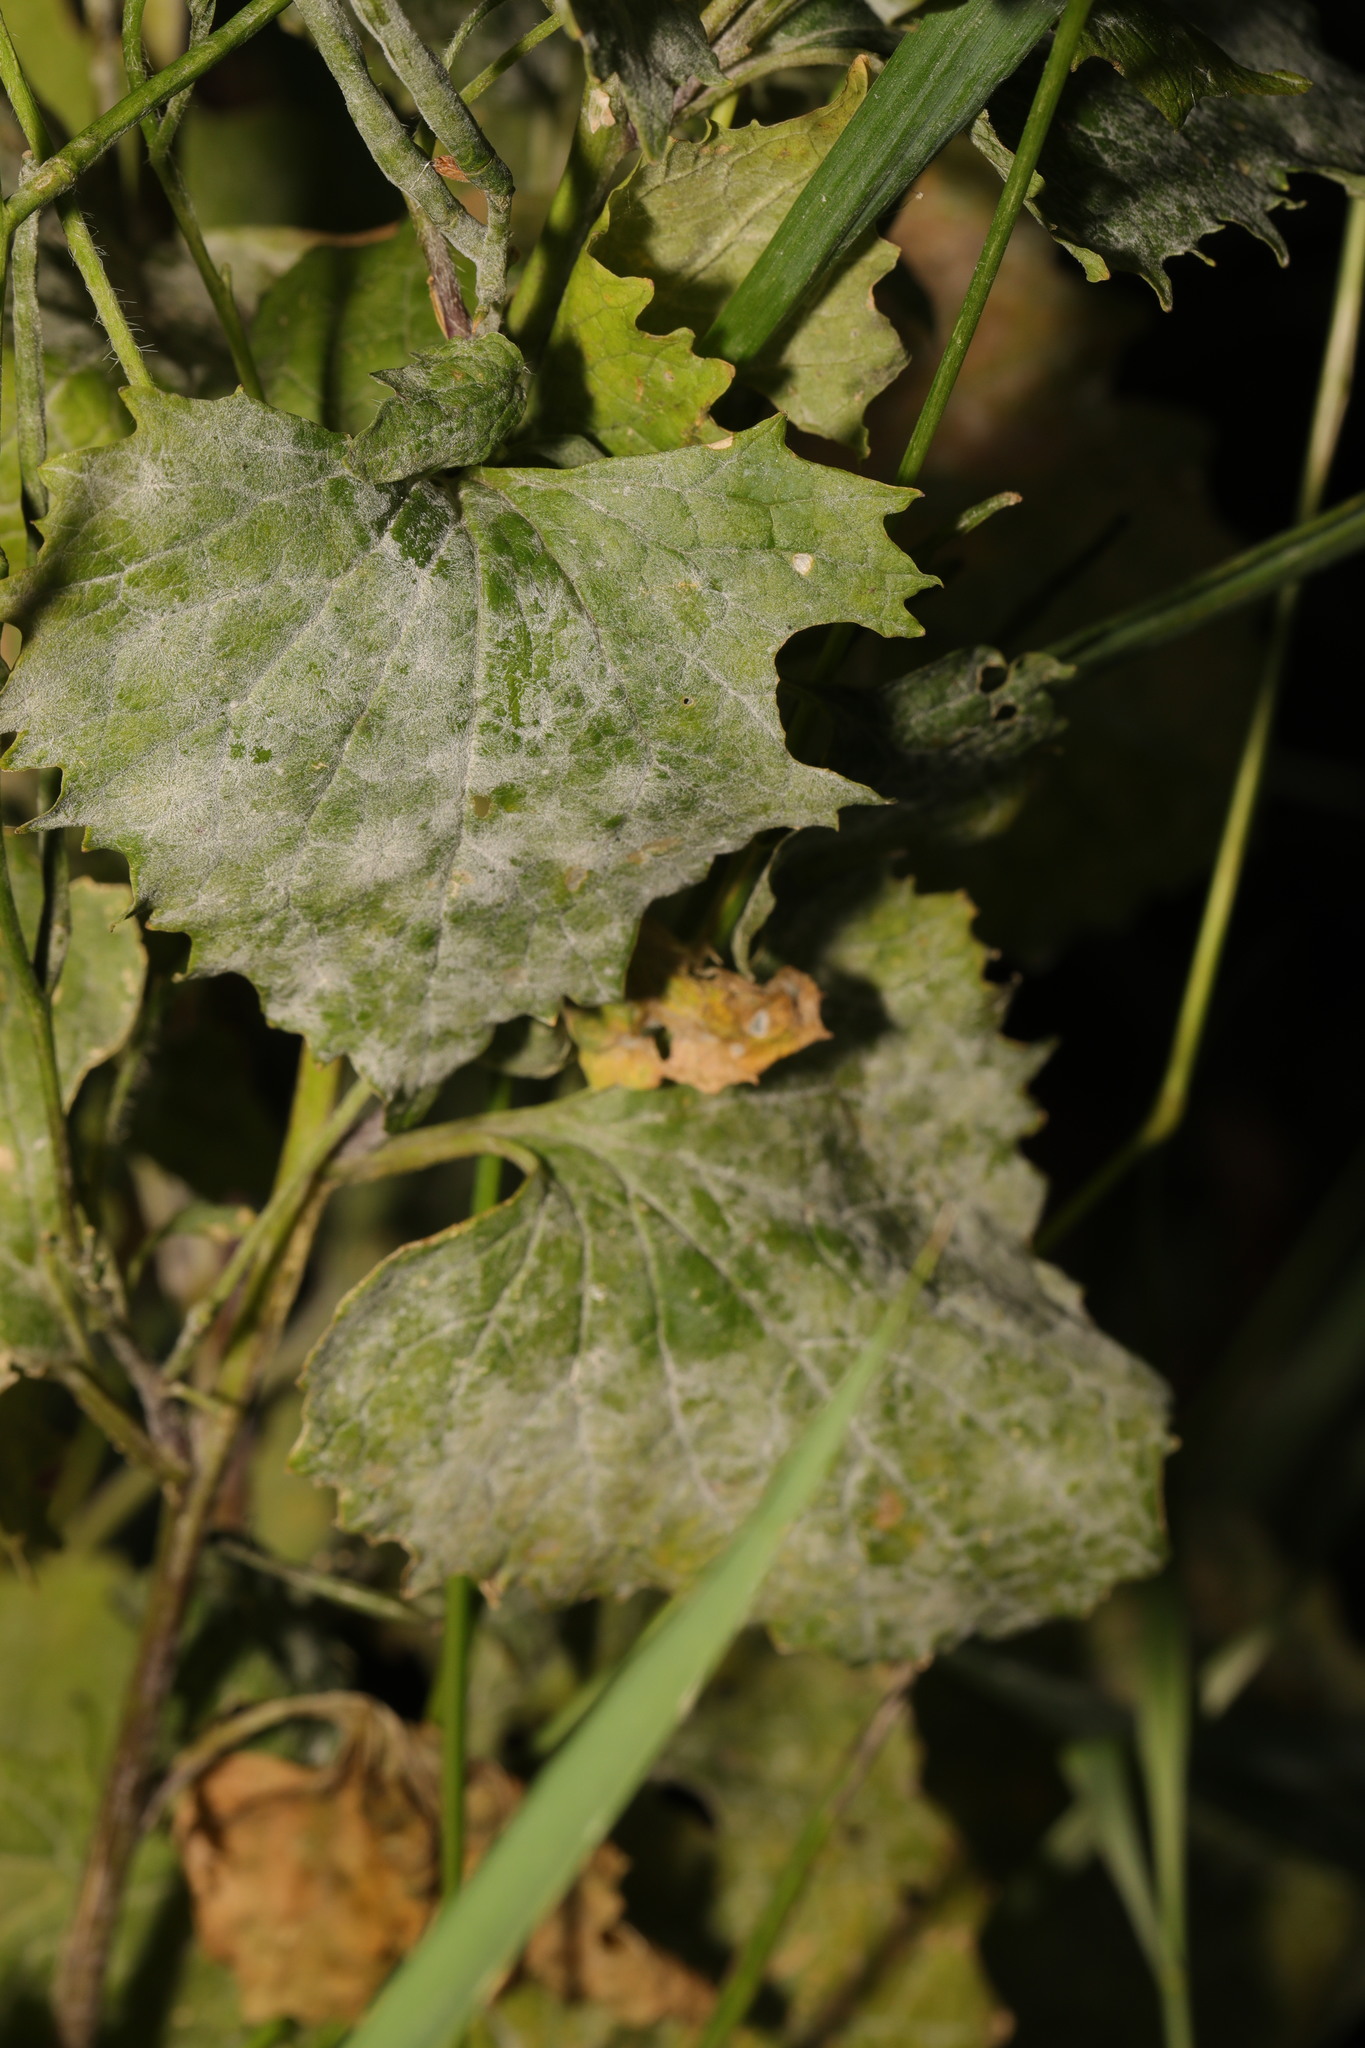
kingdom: Fungi
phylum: Ascomycota
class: Leotiomycetes
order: Helotiales
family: Erysiphaceae
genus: Erysiphe
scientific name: Erysiphe cruciferarum
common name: Brassica powdery mildew
